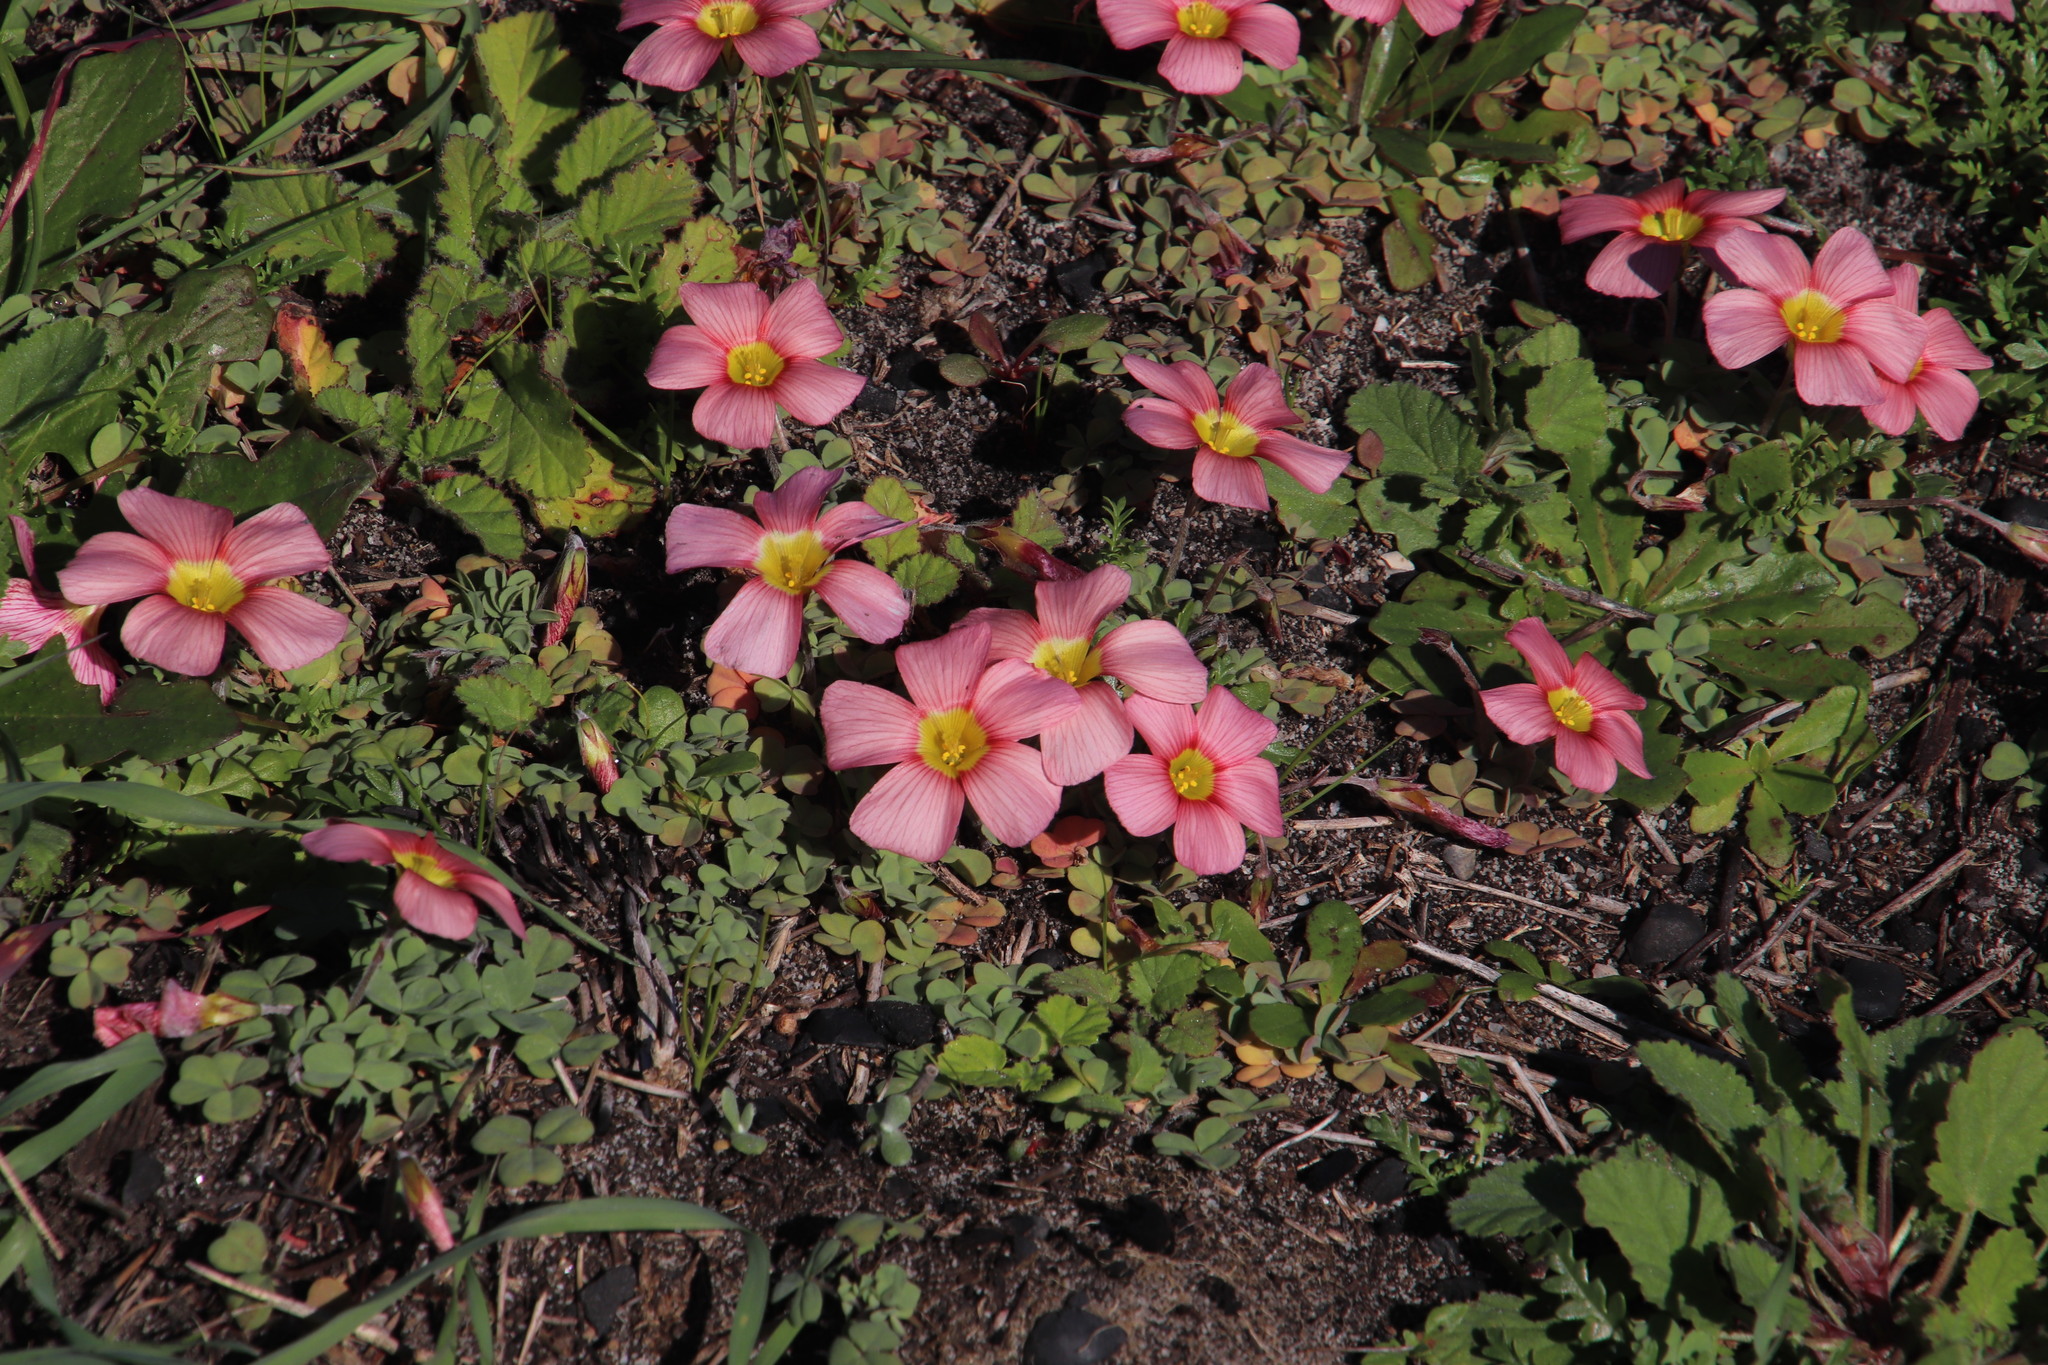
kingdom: Plantae
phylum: Tracheophyta
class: Magnoliopsida
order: Oxalidales
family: Oxalidaceae
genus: Oxalis
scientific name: Oxalis obtusa
